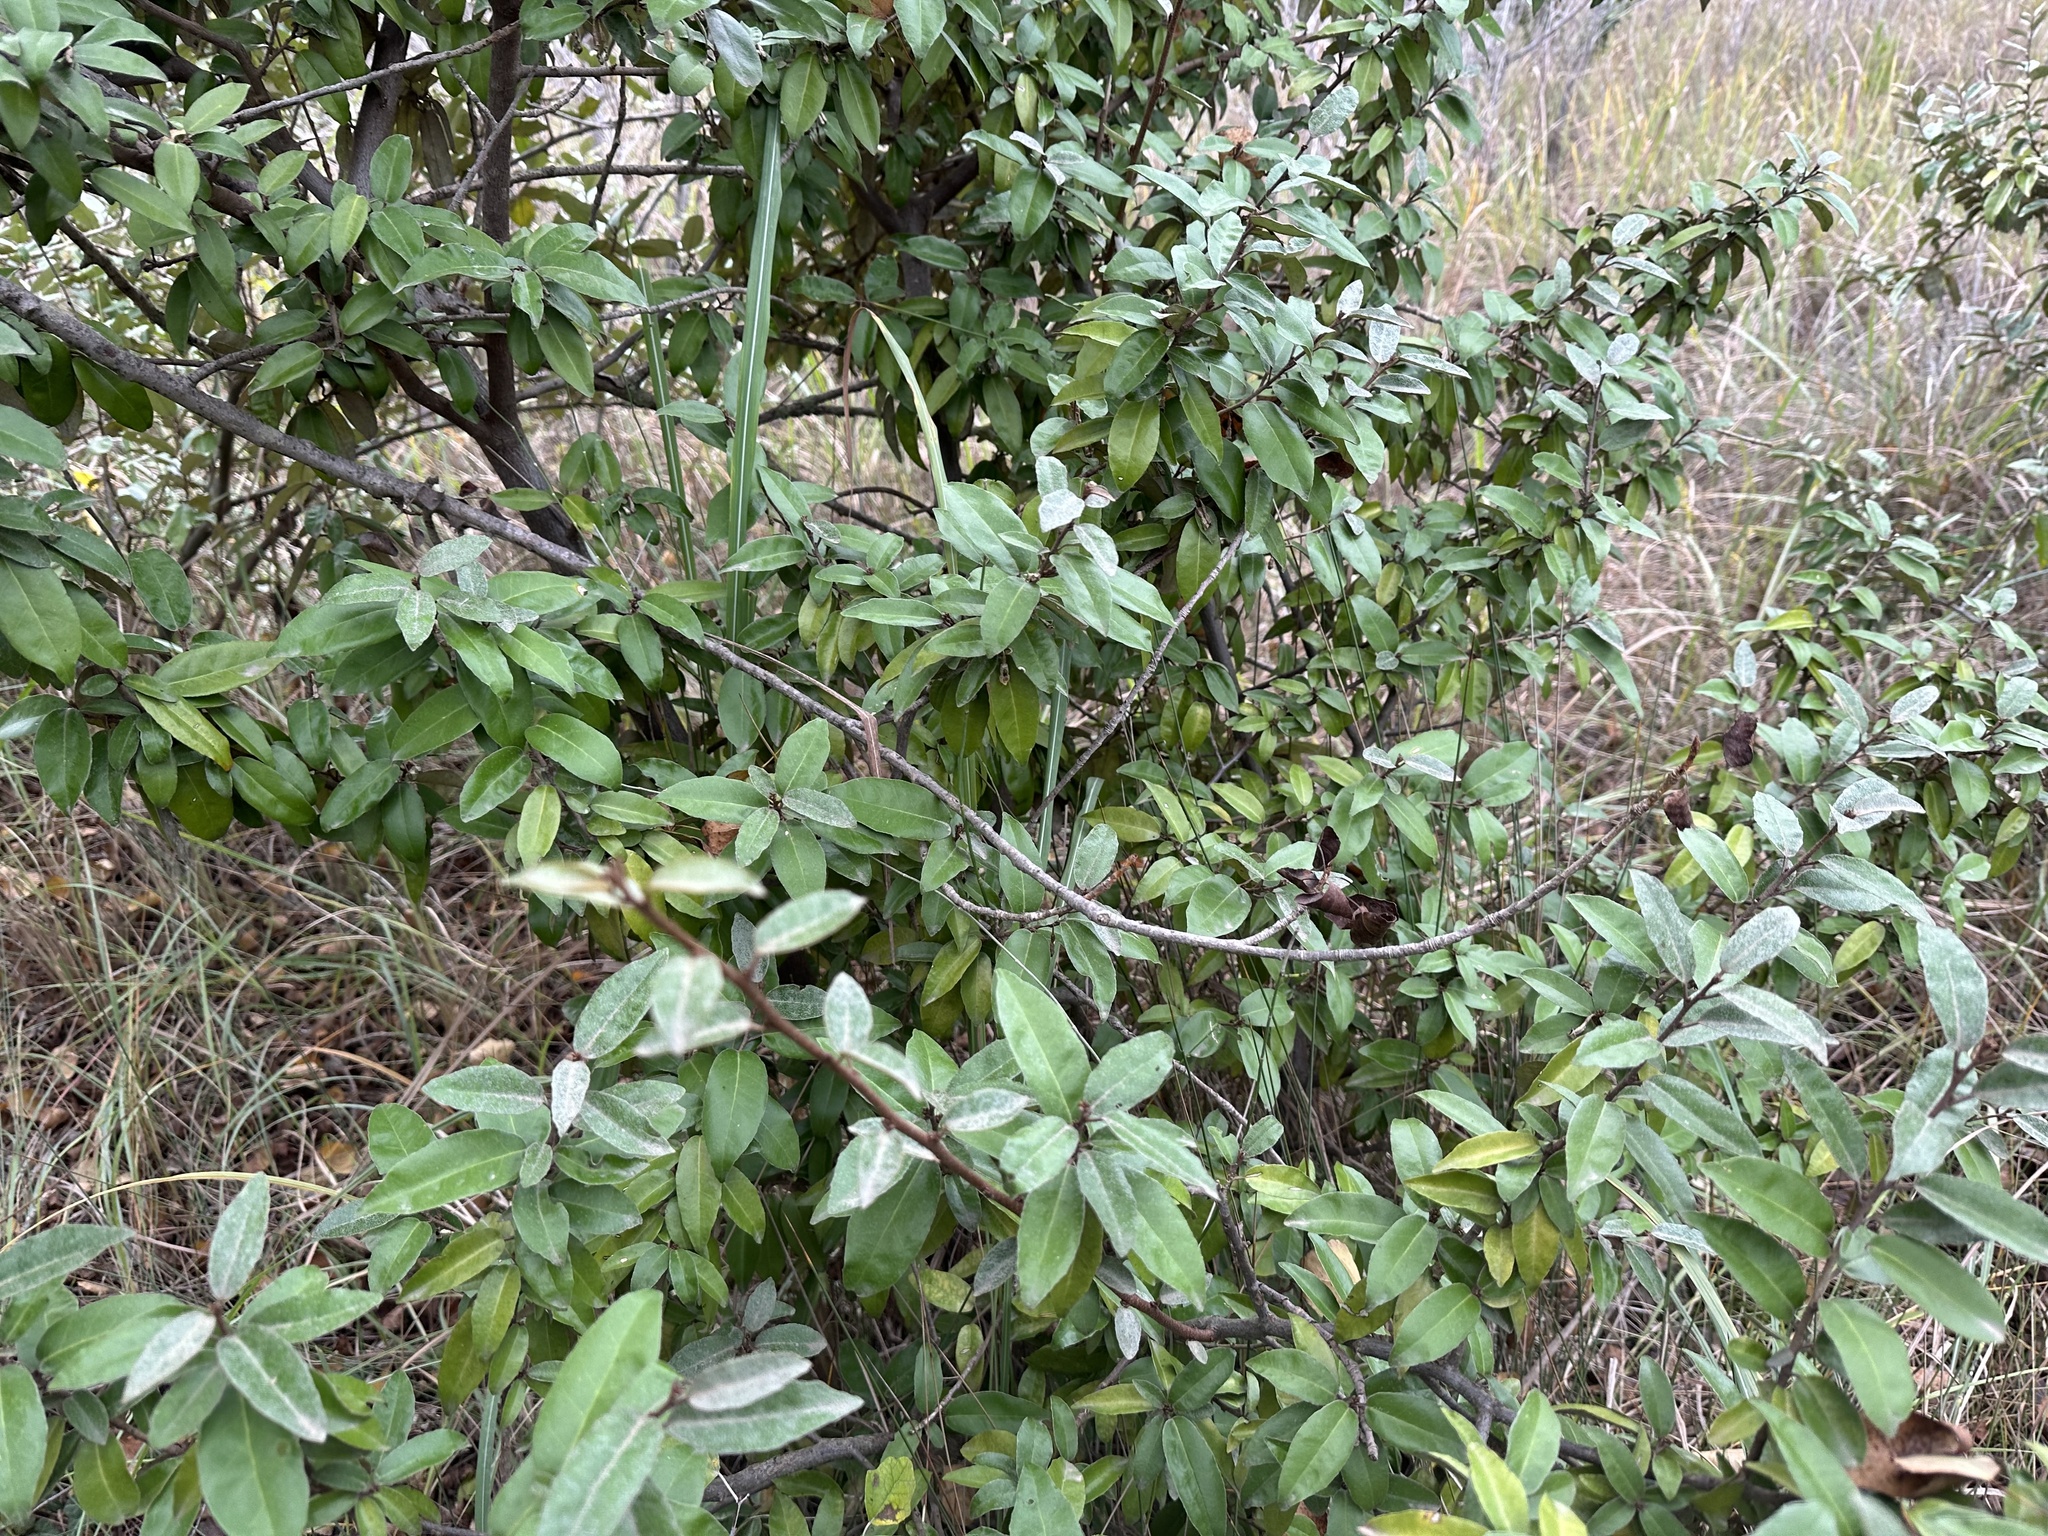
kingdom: Plantae
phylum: Tracheophyta
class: Magnoliopsida
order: Rosales
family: Elaeagnaceae
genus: Elaeagnus
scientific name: Elaeagnus pungens
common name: Spiny oleaster
